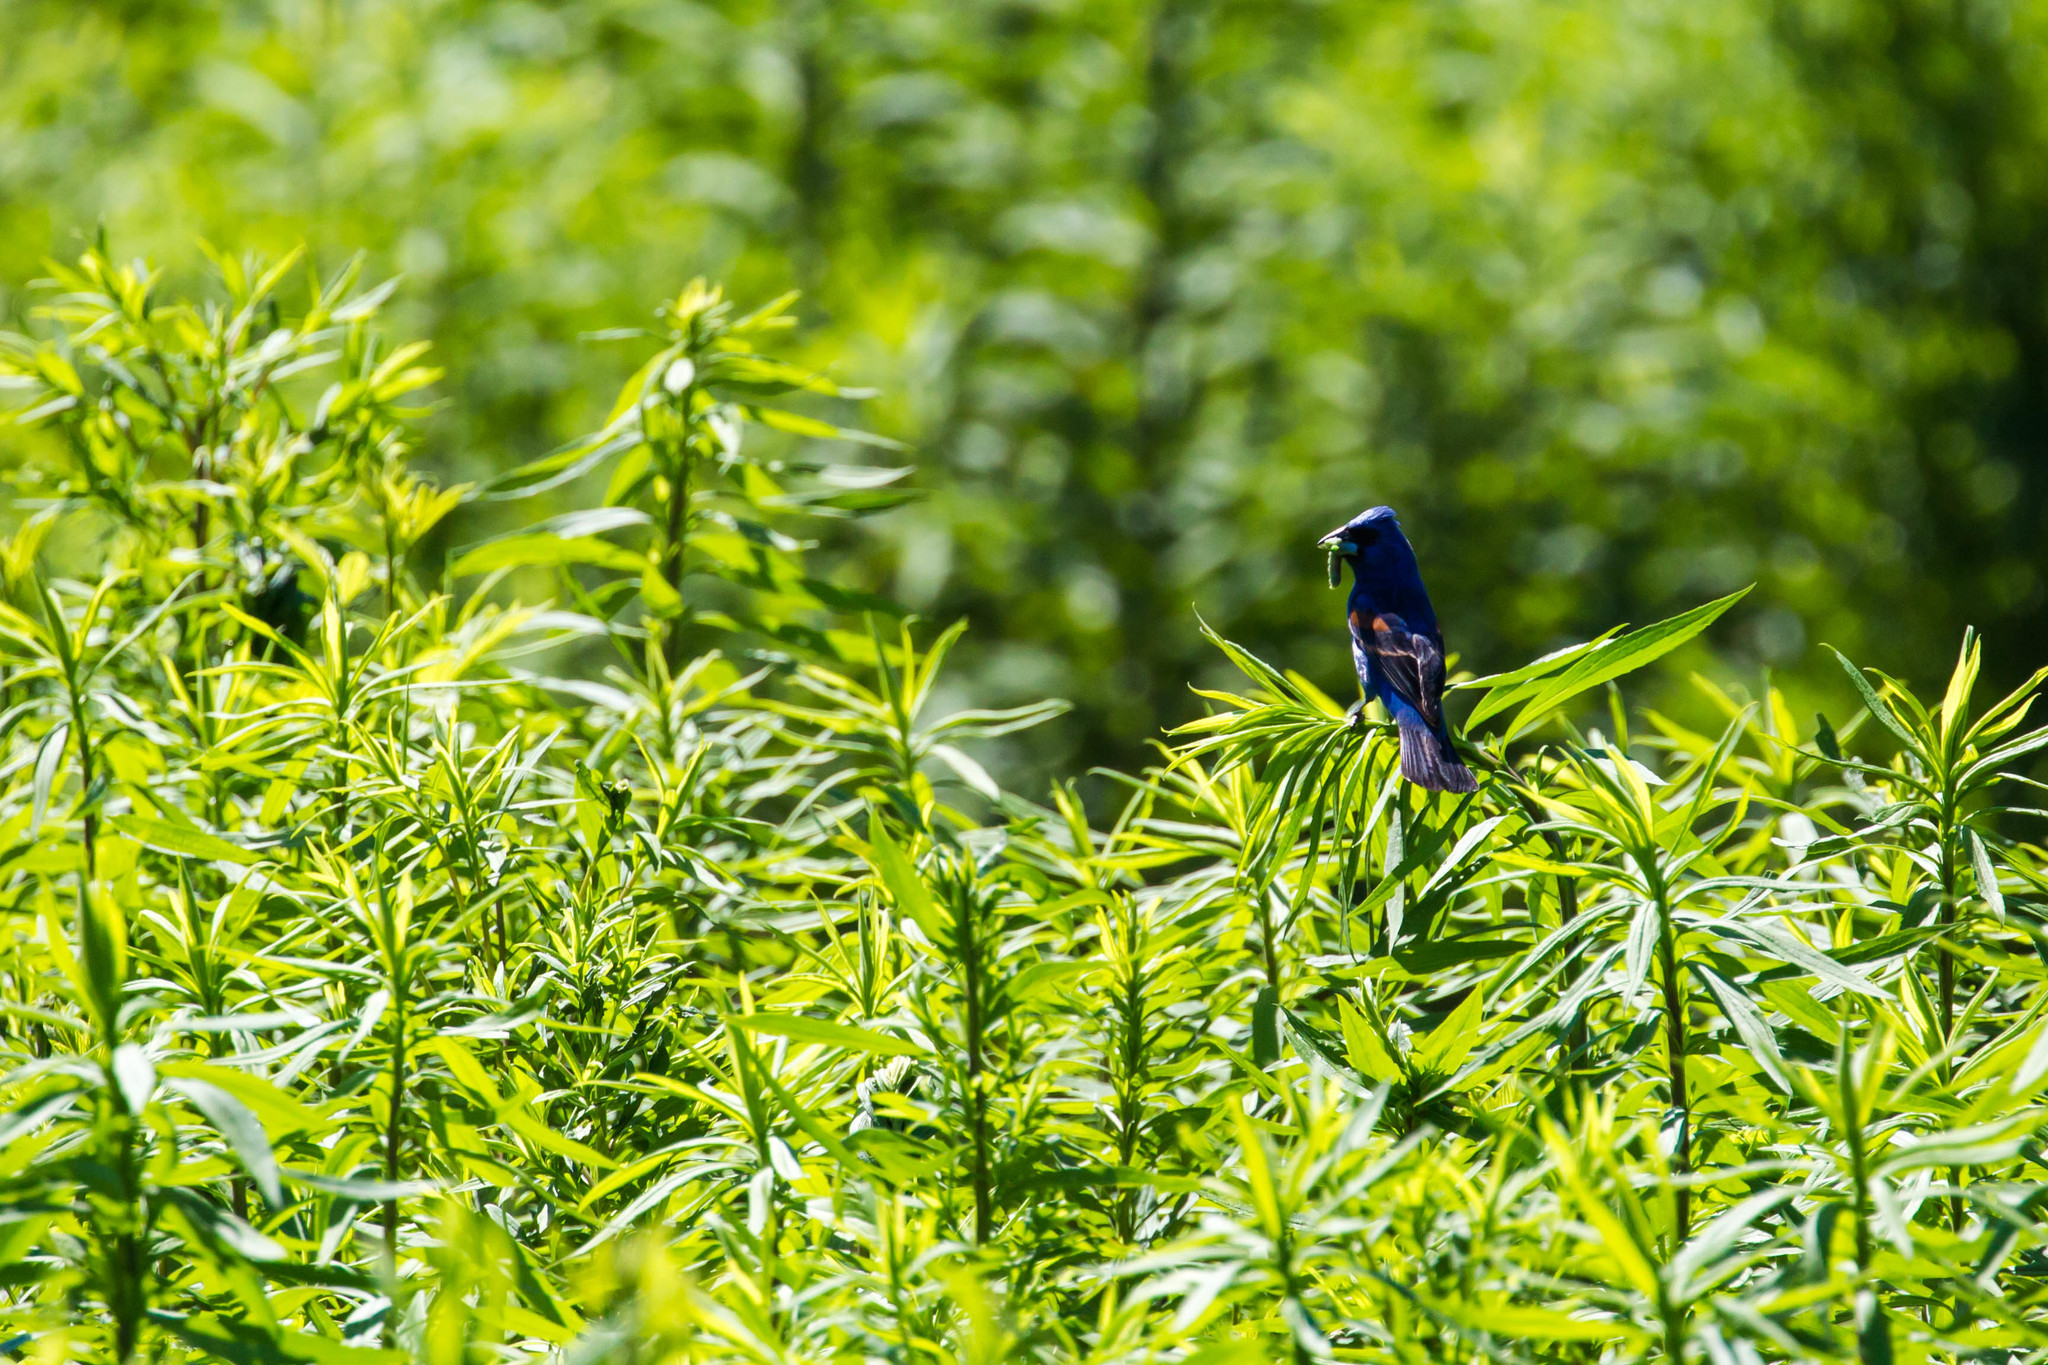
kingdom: Animalia
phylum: Chordata
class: Aves
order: Passeriformes
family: Cardinalidae
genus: Passerina
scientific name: Passerina caerulea
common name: Blue grosbeak
